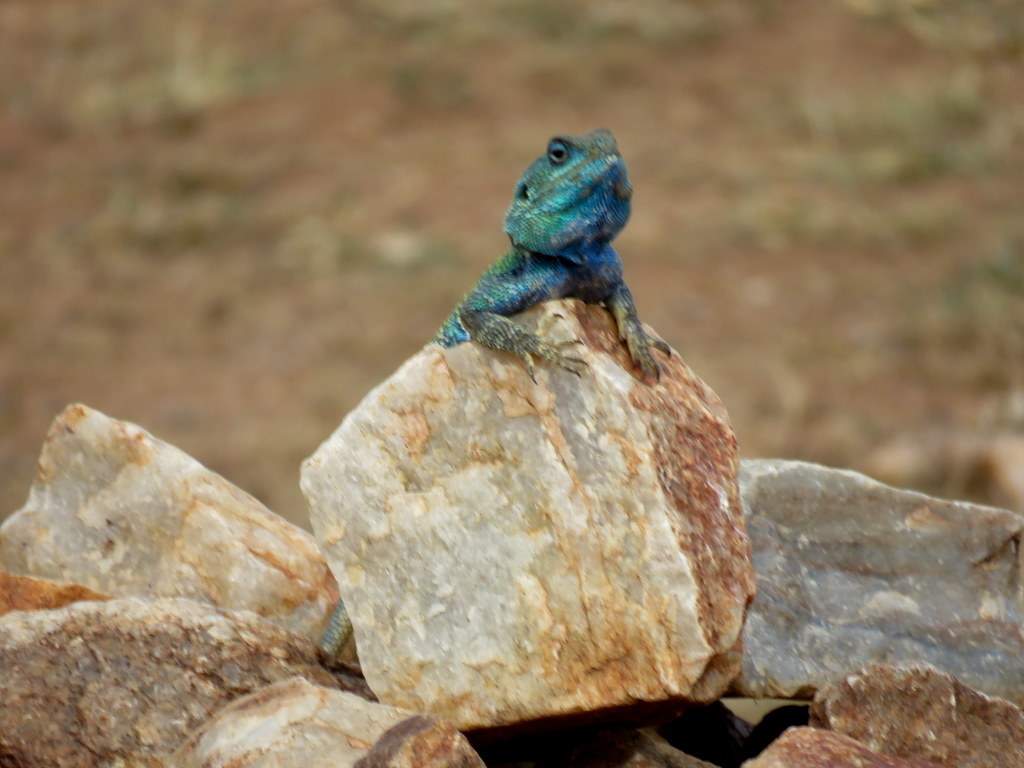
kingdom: Animalia
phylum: Chordata
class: Squamata
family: Agamidae
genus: Acanthocercus
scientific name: Acanthocercus gregorii
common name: Black-necked (ridgeback) agama
